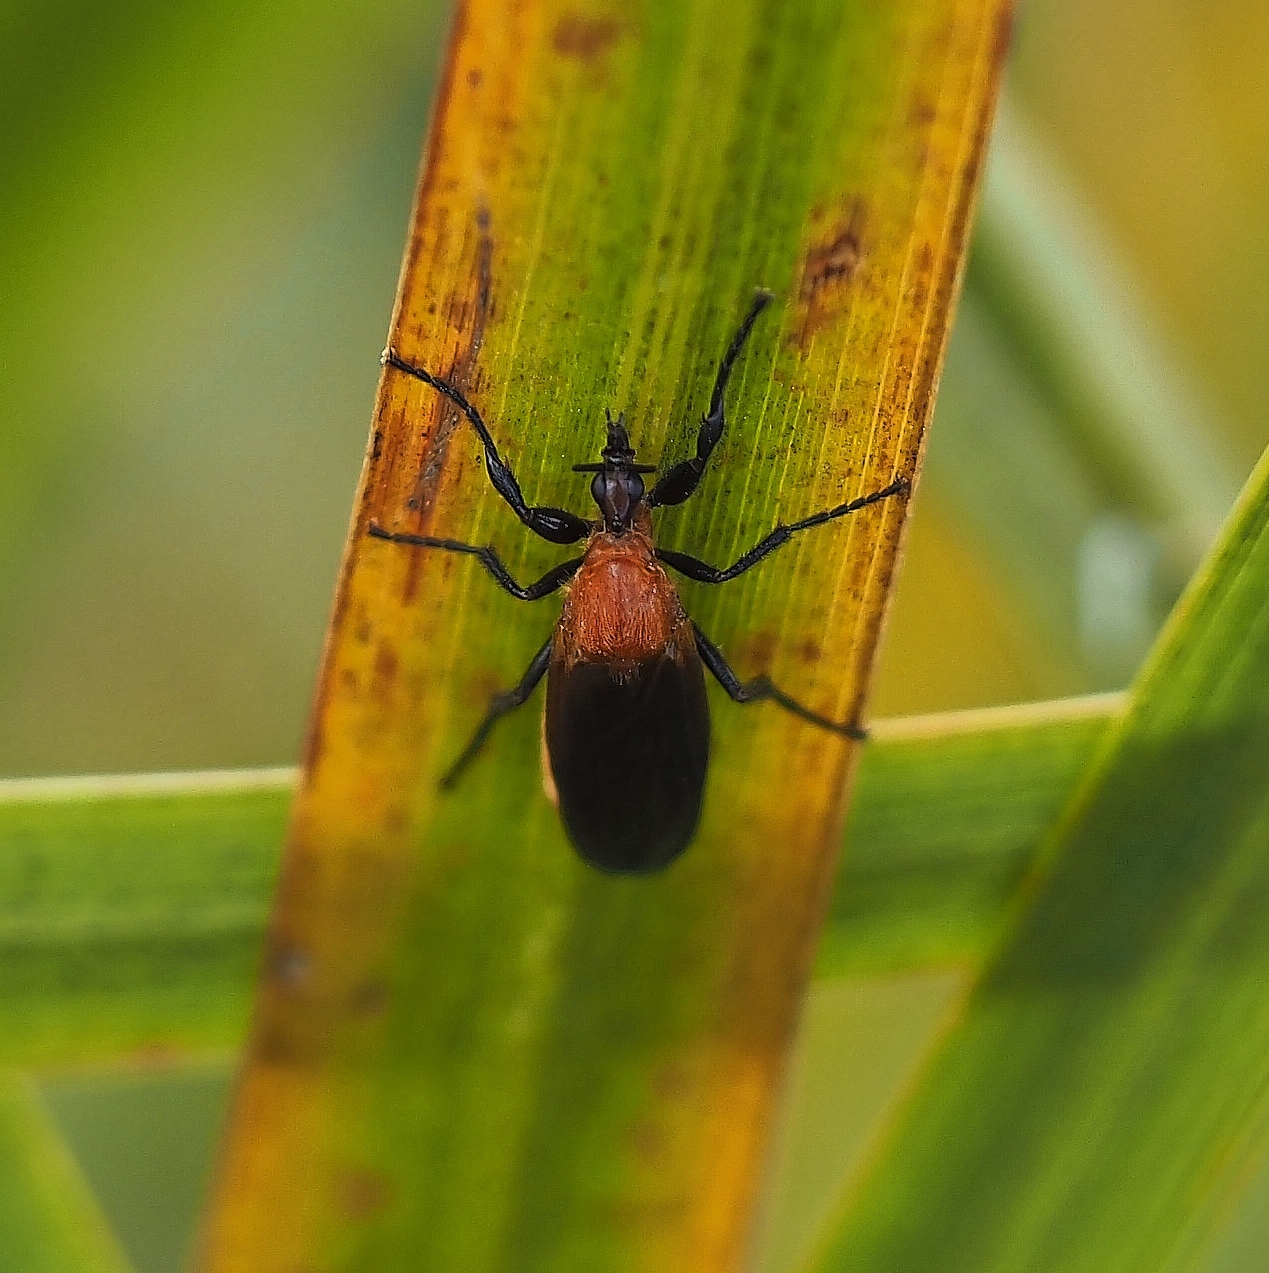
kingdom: Animalia
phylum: Arthropoda
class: Insecta
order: Diptera
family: Bibionidae
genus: Bibio
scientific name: Bibio imitator
